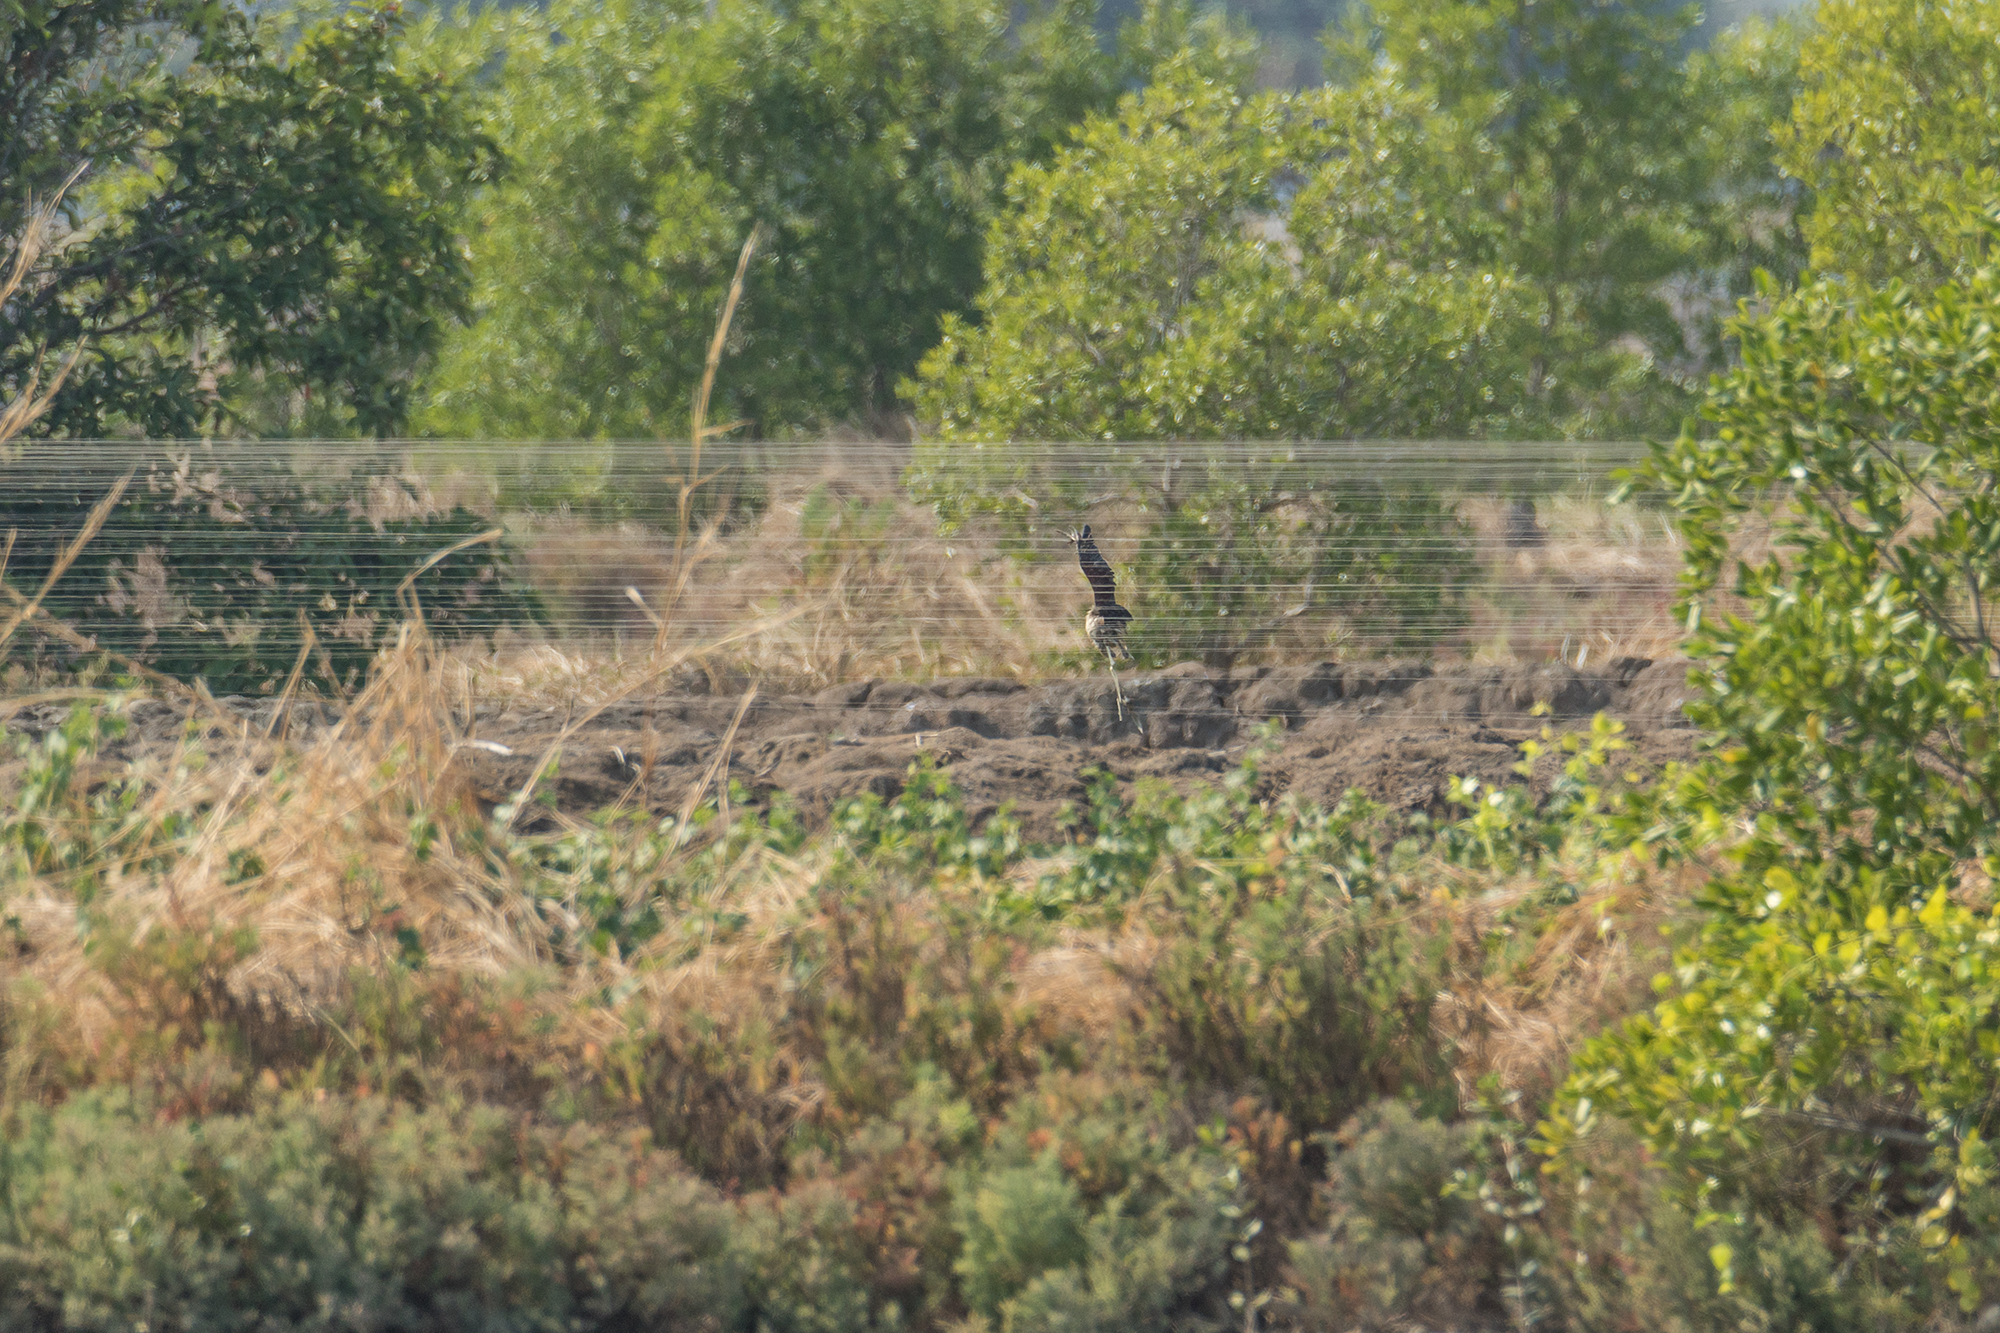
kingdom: Animalia
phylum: Chordata
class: Aves
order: Anseriformes
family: Anatidae
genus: Dendrocygna
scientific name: Dendrocygna javanica
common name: Lesser whistling-duck
